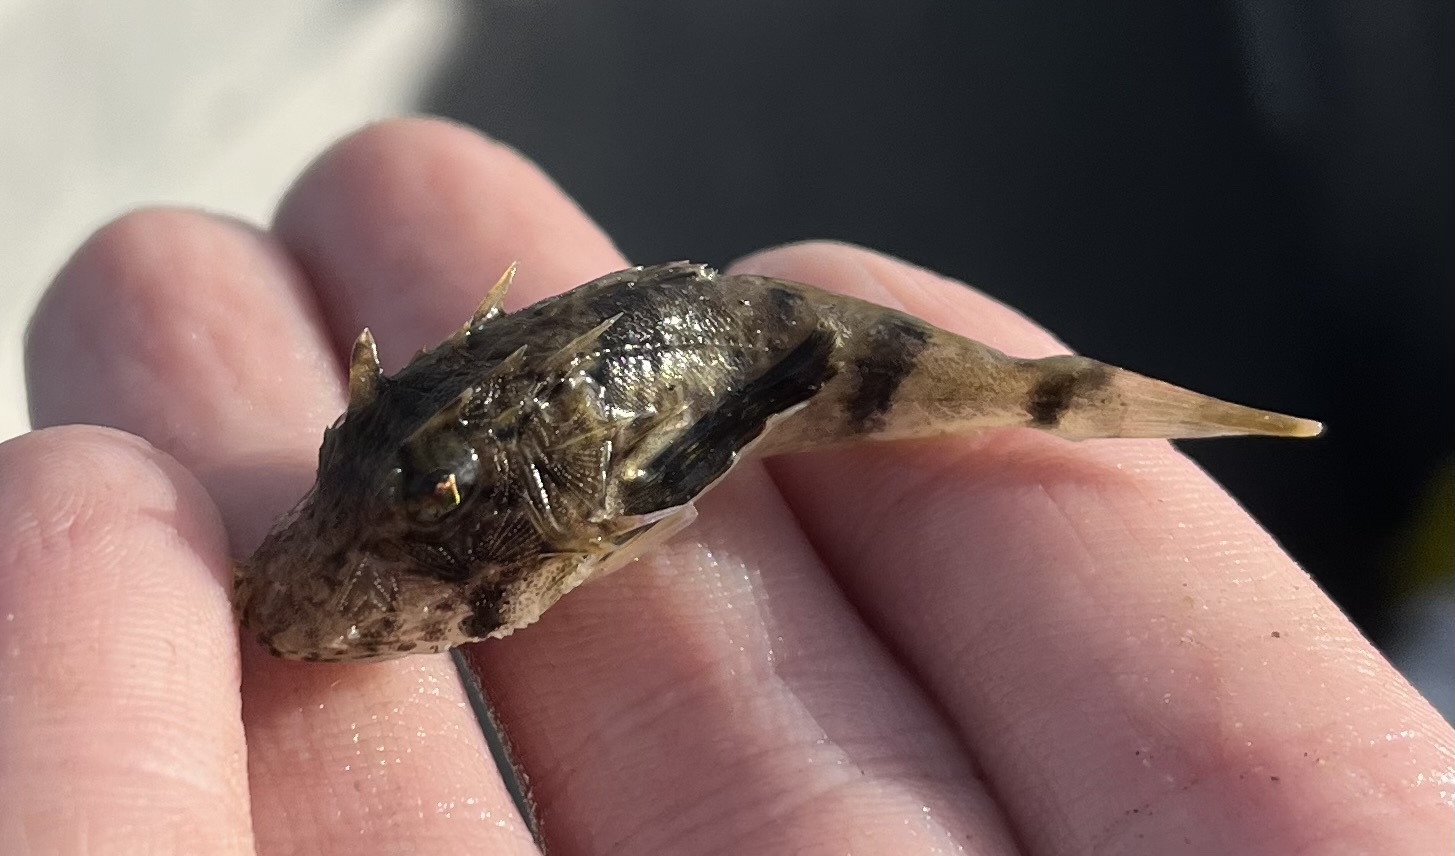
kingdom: Animalia
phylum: Chordata
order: Scorpaeniformes
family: Triglidae
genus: Prionotus
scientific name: Prionotus tribulus
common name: Bighead searobin
